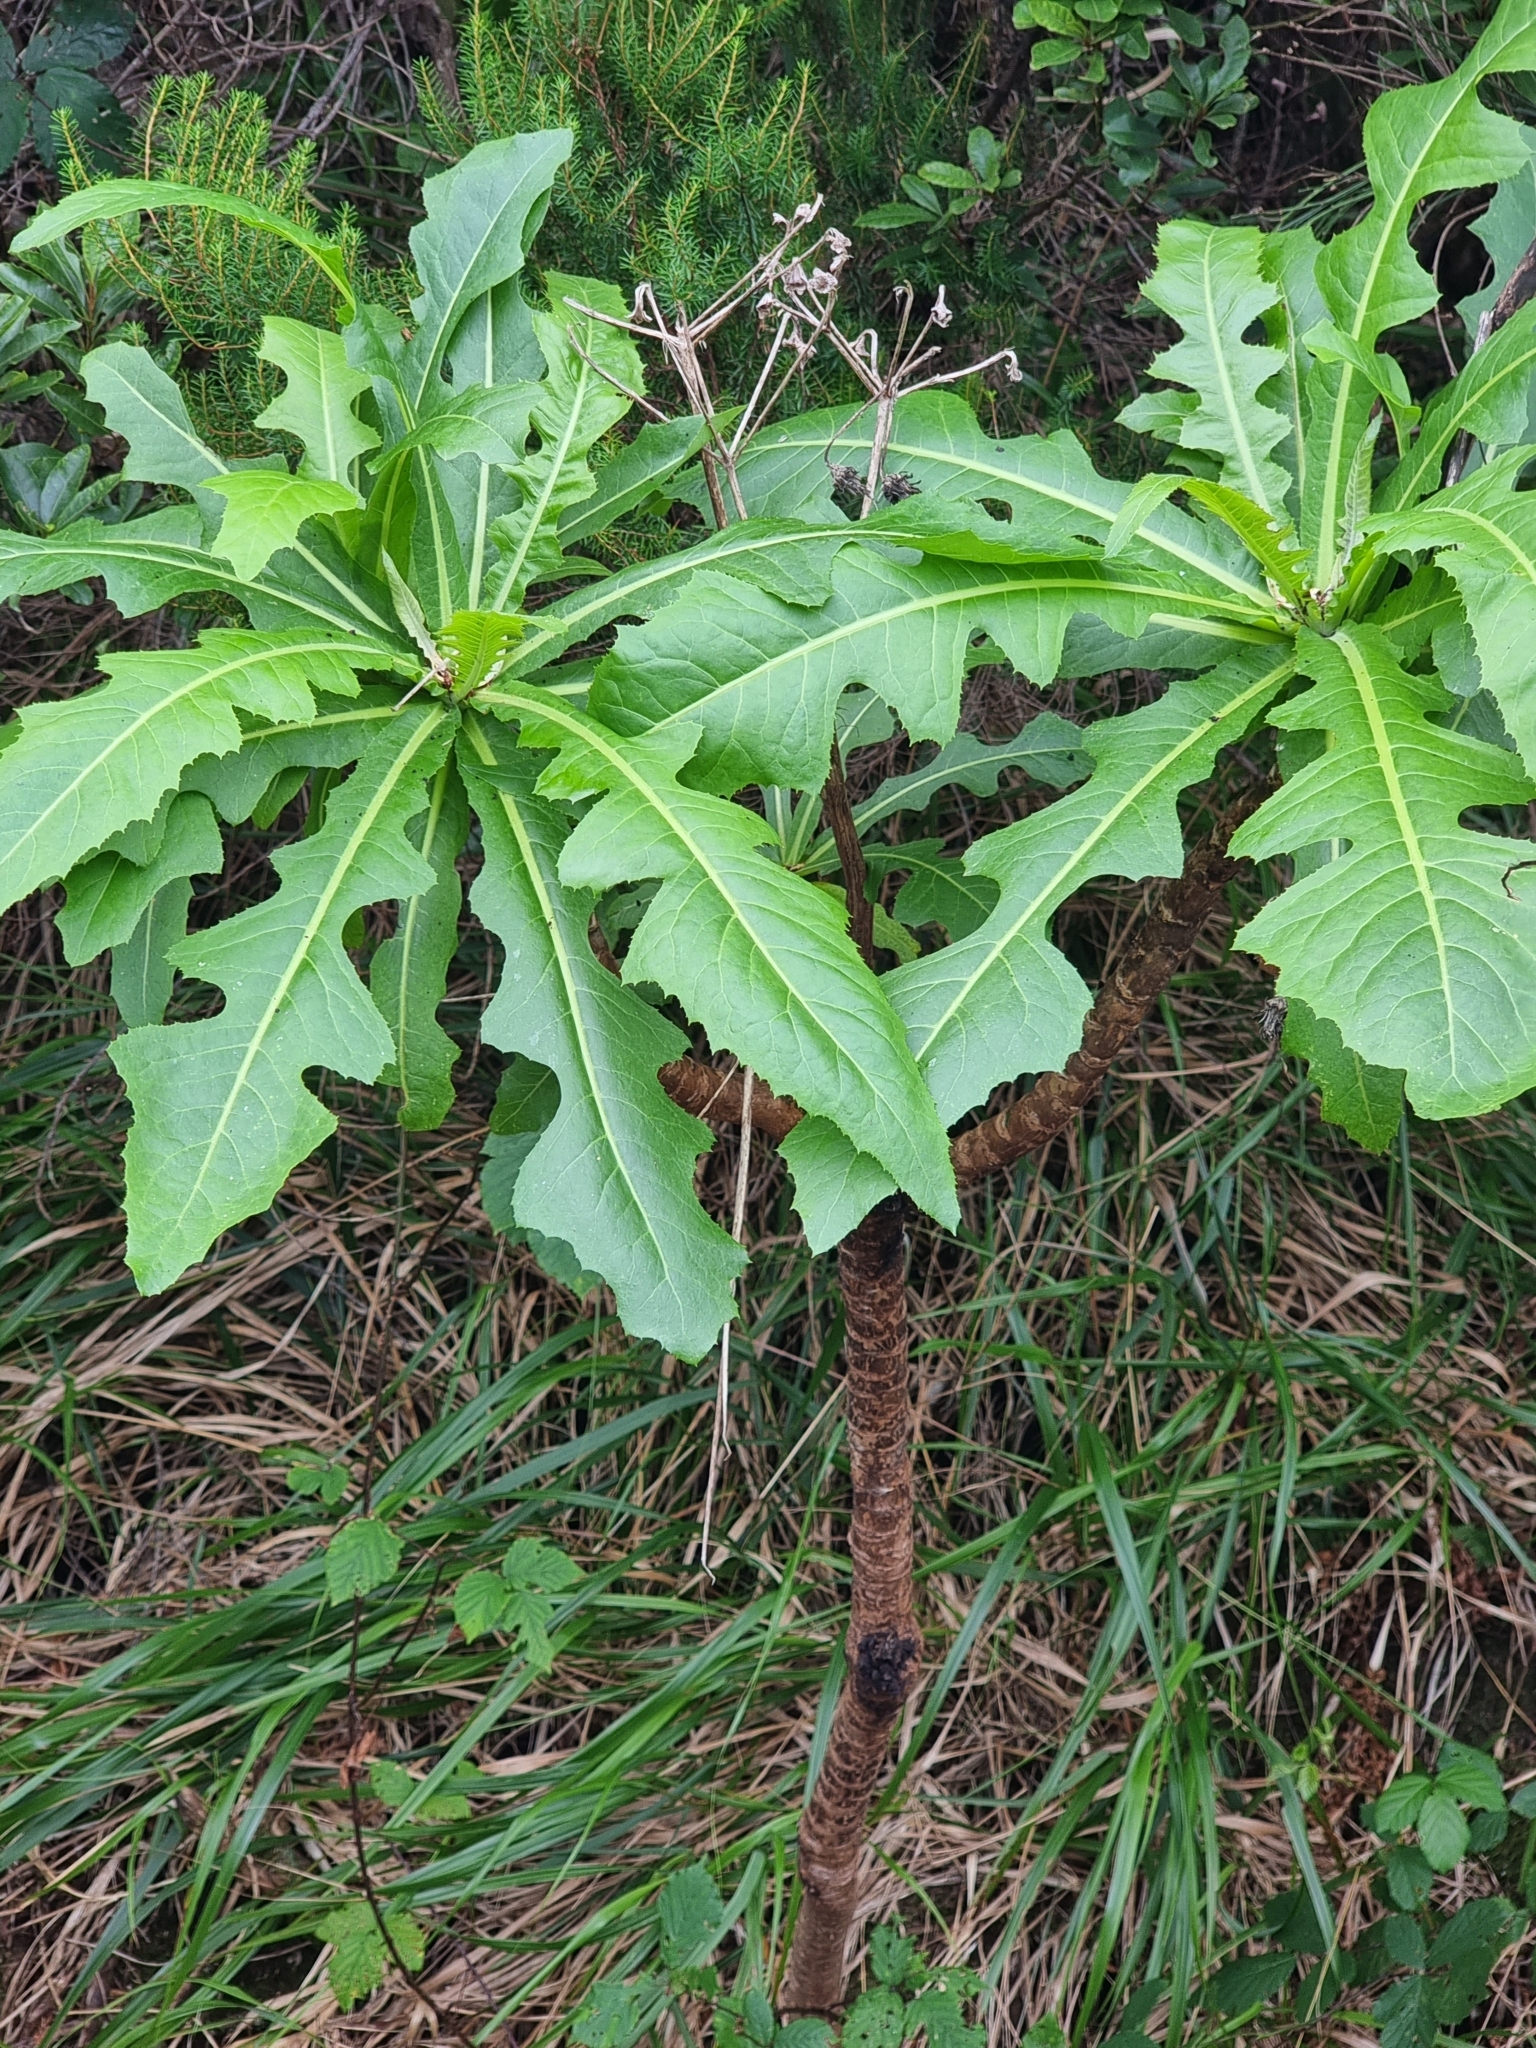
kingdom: Plantae
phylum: Tracheophyta
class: Magnoliopsida
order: Asterales
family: Asteraceae
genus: Sonchus
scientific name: Sonchus fruticosus
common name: Shrubby sow-thistle
